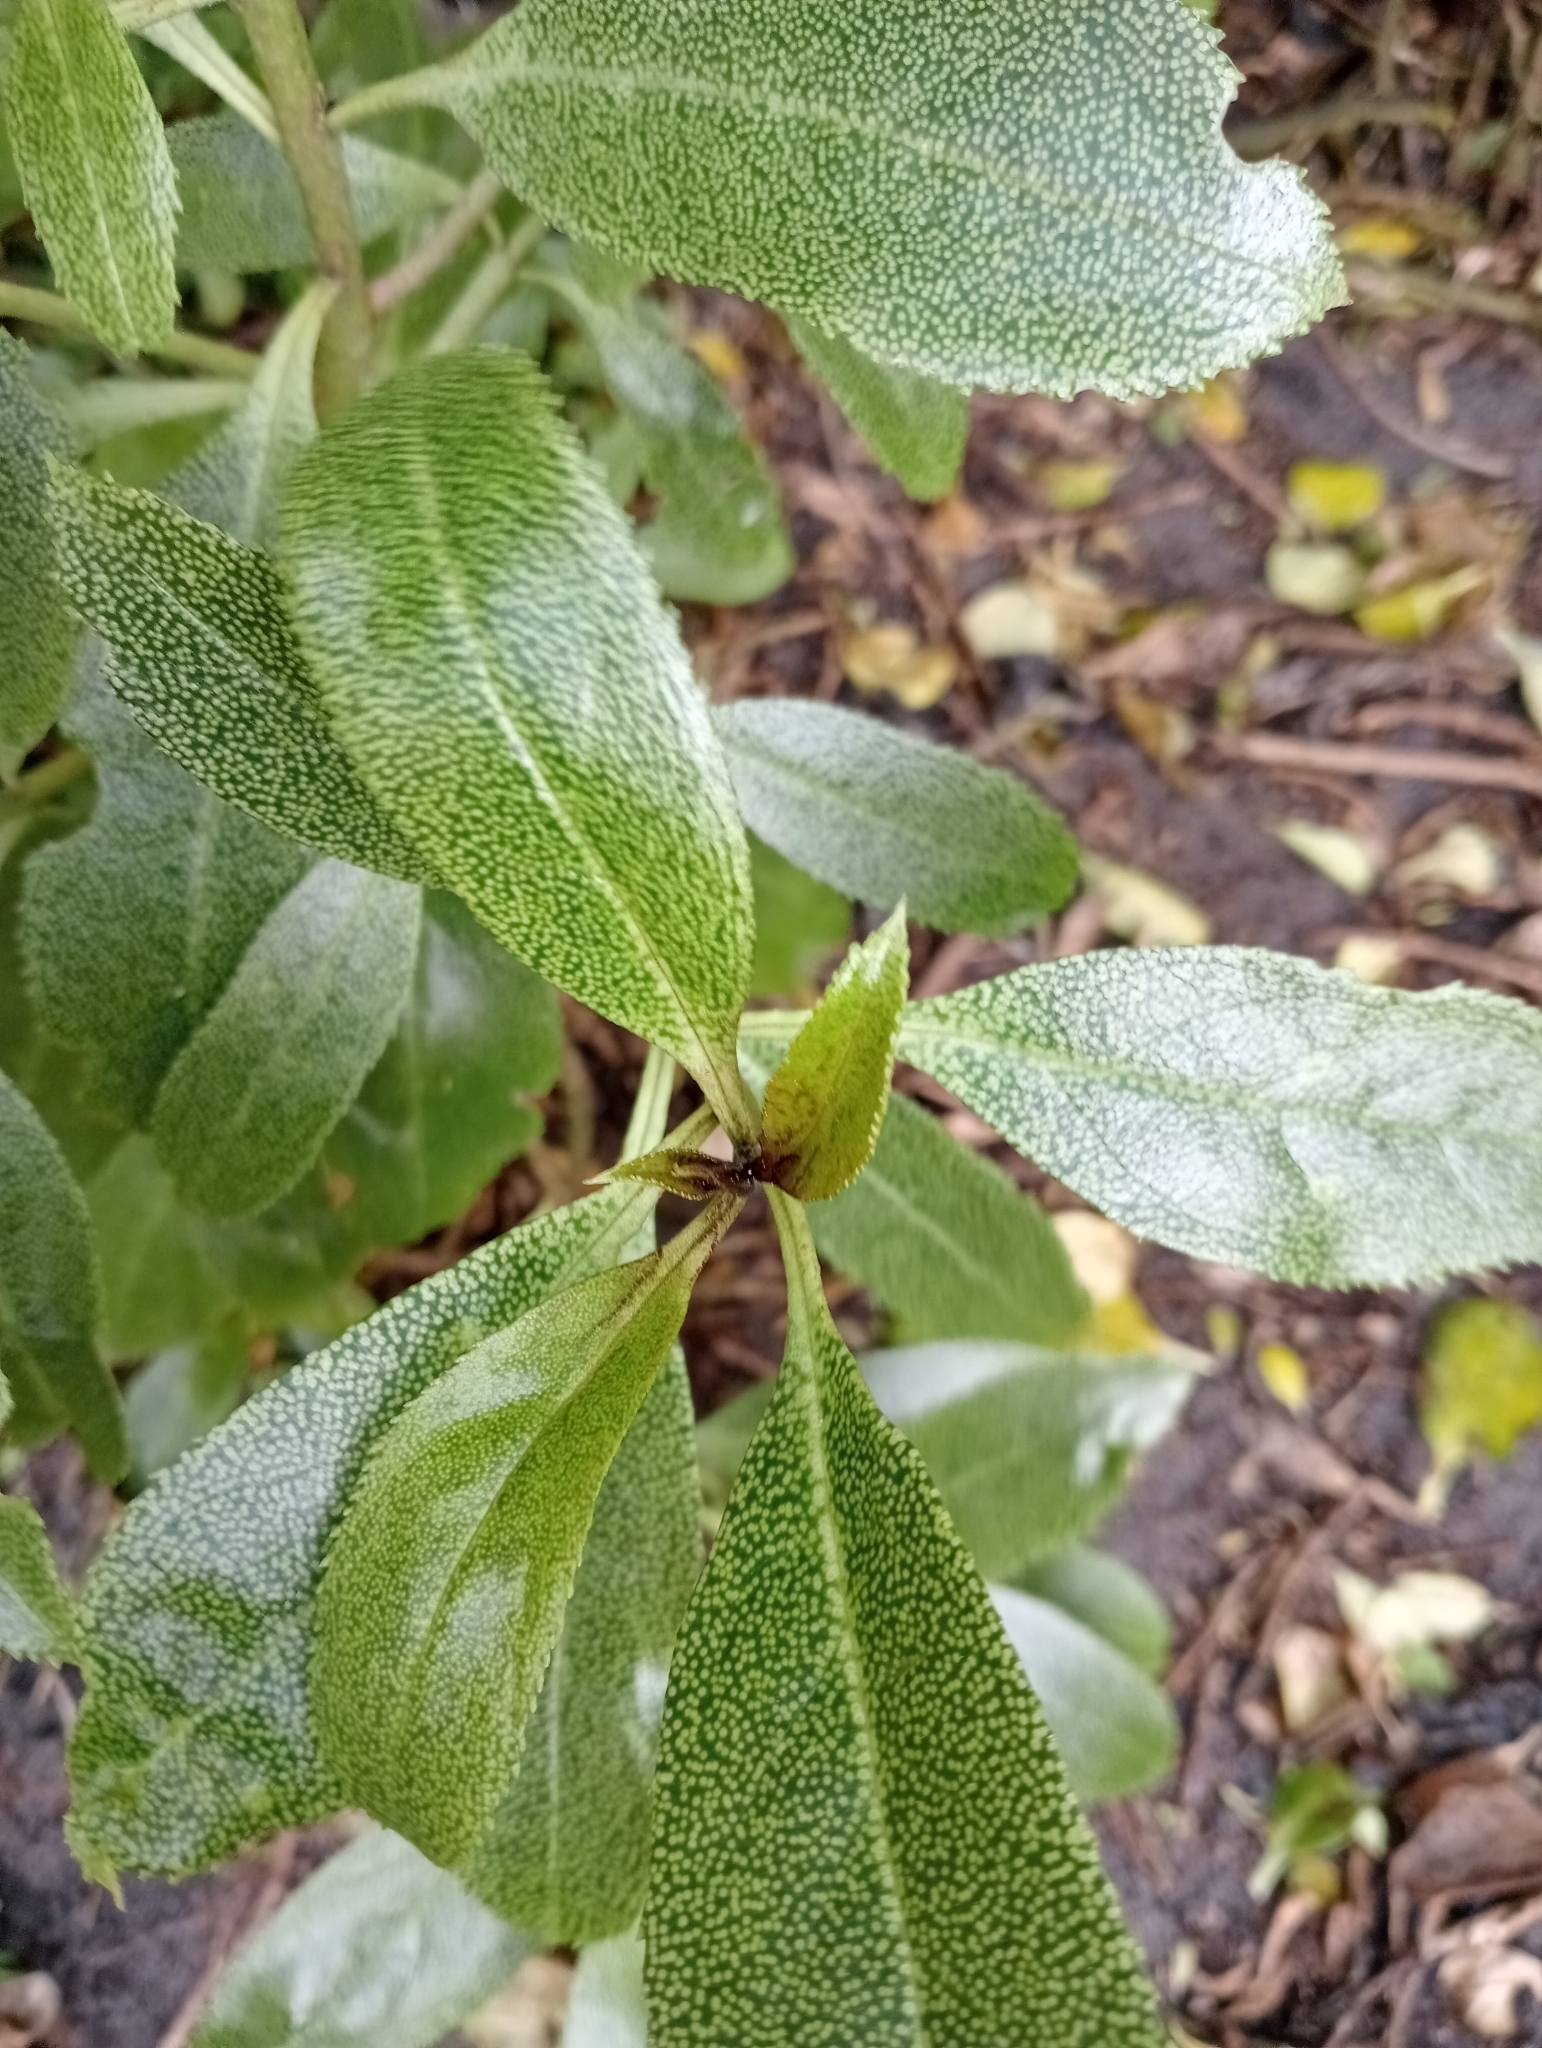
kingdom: Plantae
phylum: Tracheophyta
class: Magnoliopsida
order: Lamiales
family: Scrophulariaceae
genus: Myoporum
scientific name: Myoporum laetum
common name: Ngaio tree
